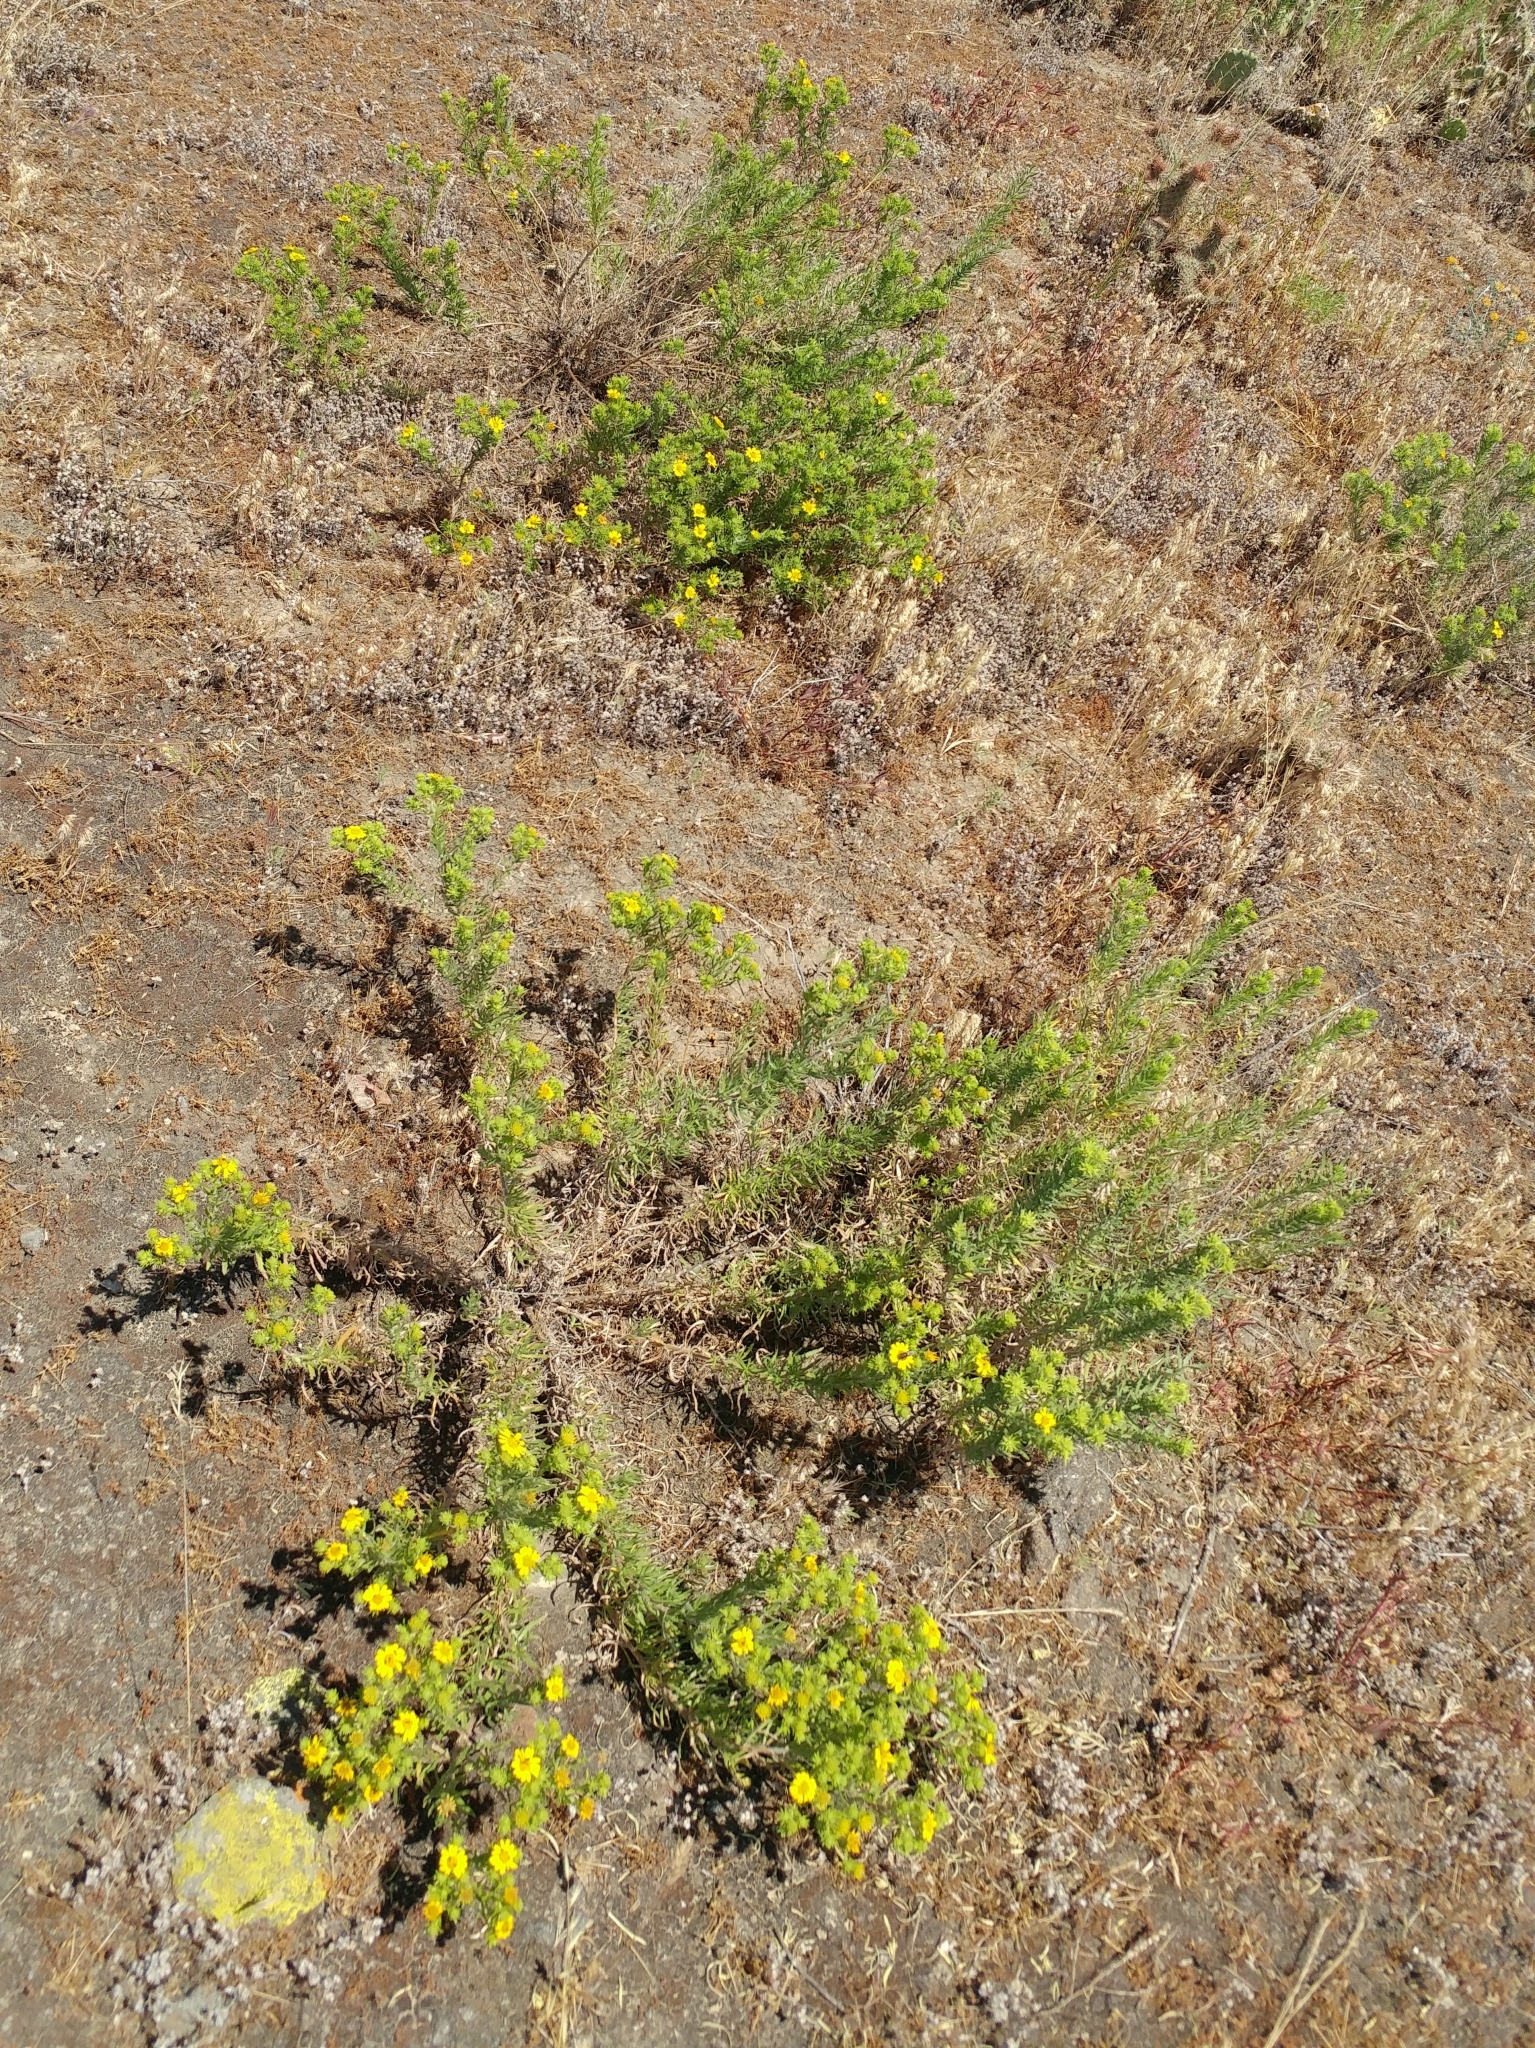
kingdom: Plantae
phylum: Tracheophyta
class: Magnoliopsida
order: Asterales
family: Asteraceae
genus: Deinandra
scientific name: Deinandra clementina
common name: Island tarplant
